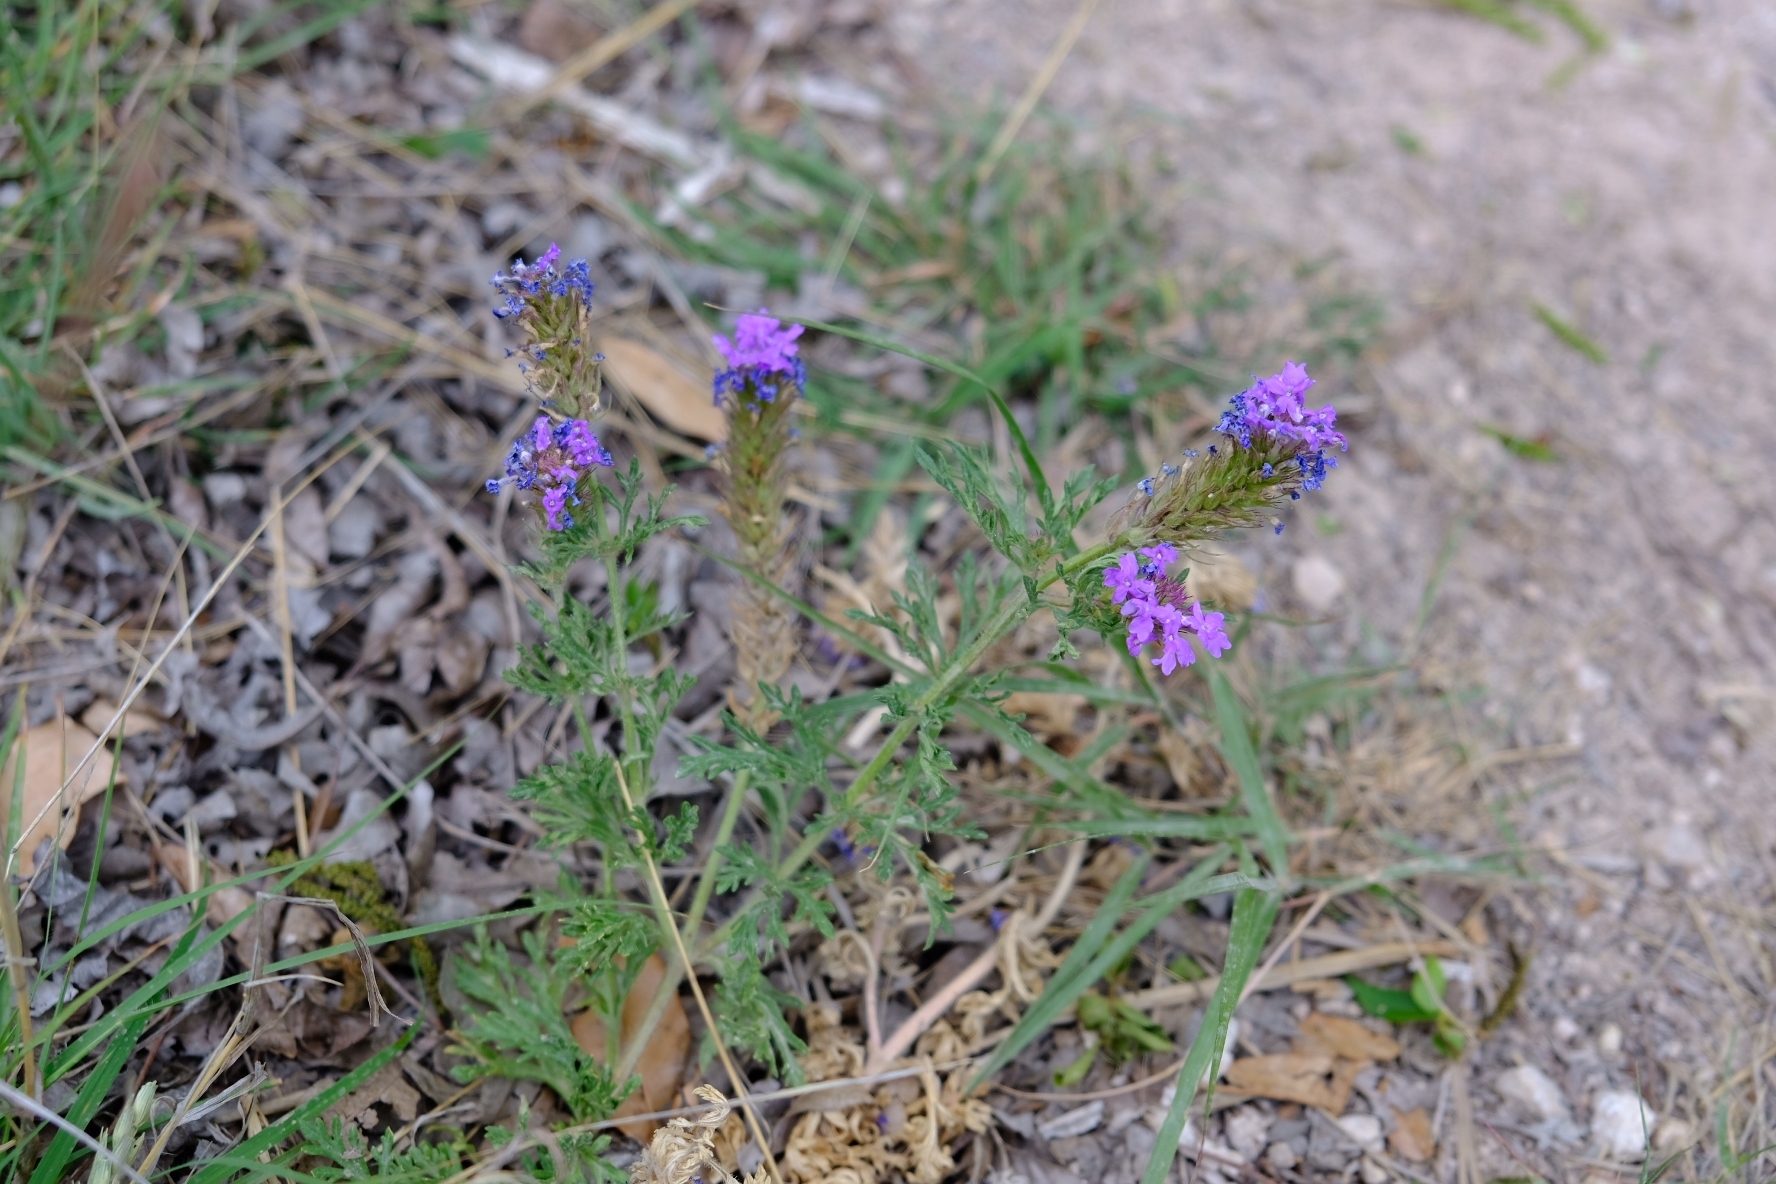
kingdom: Plantae
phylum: Tracheophyta
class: Magnoliopsida
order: Lamiales
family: Verbenaceae
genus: Verbena
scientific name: Verbena bipinnatifida
